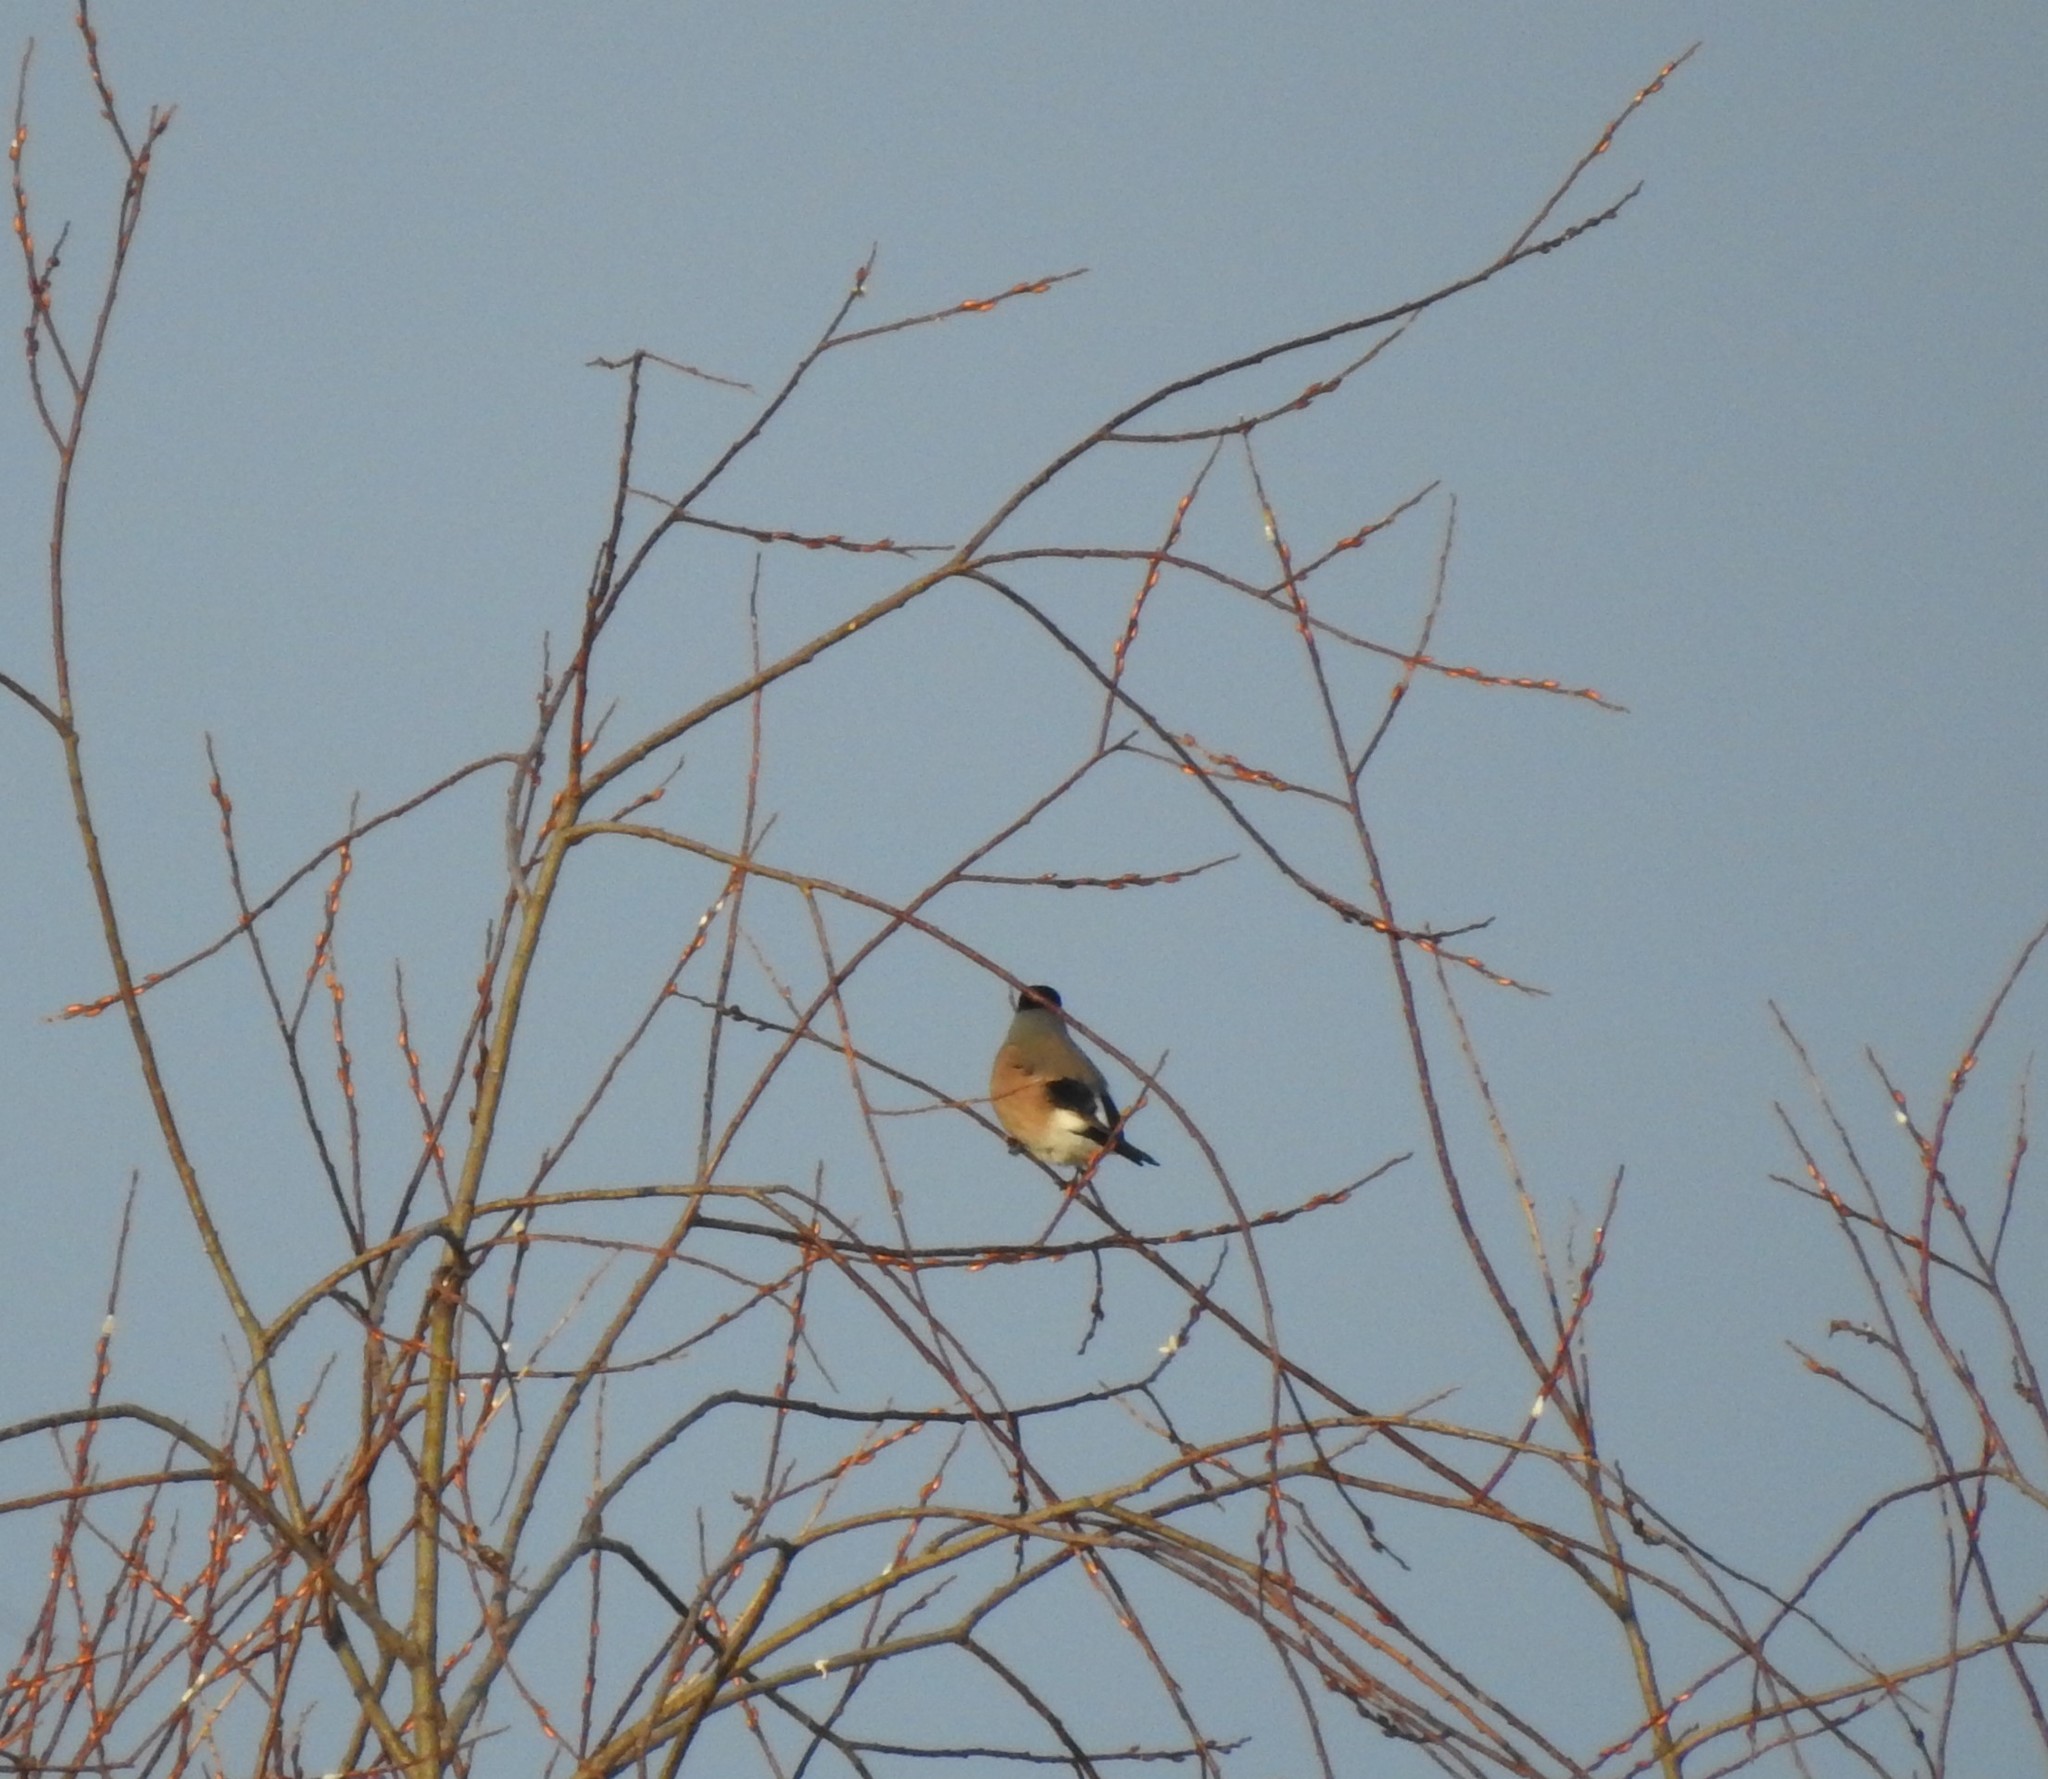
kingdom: Animalia
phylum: Chordata
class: Aves
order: Passeriformes
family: Fringillidae
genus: Pyrrhula
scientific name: Pyrrhula pyrrhula
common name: Eurasian bullfinch
